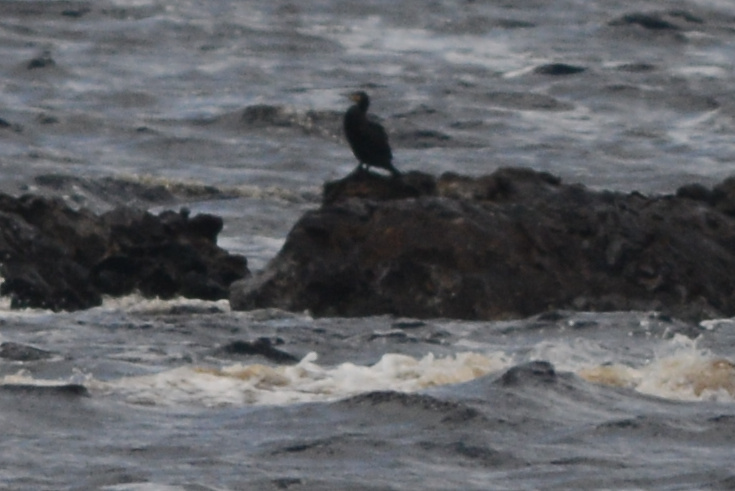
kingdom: Animalia
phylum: Chordata
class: Aves
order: Suliformes
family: Phalacrocoracidae
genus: Phalacrocorax
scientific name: Phalacrocorax carbo
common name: Great cormorant
